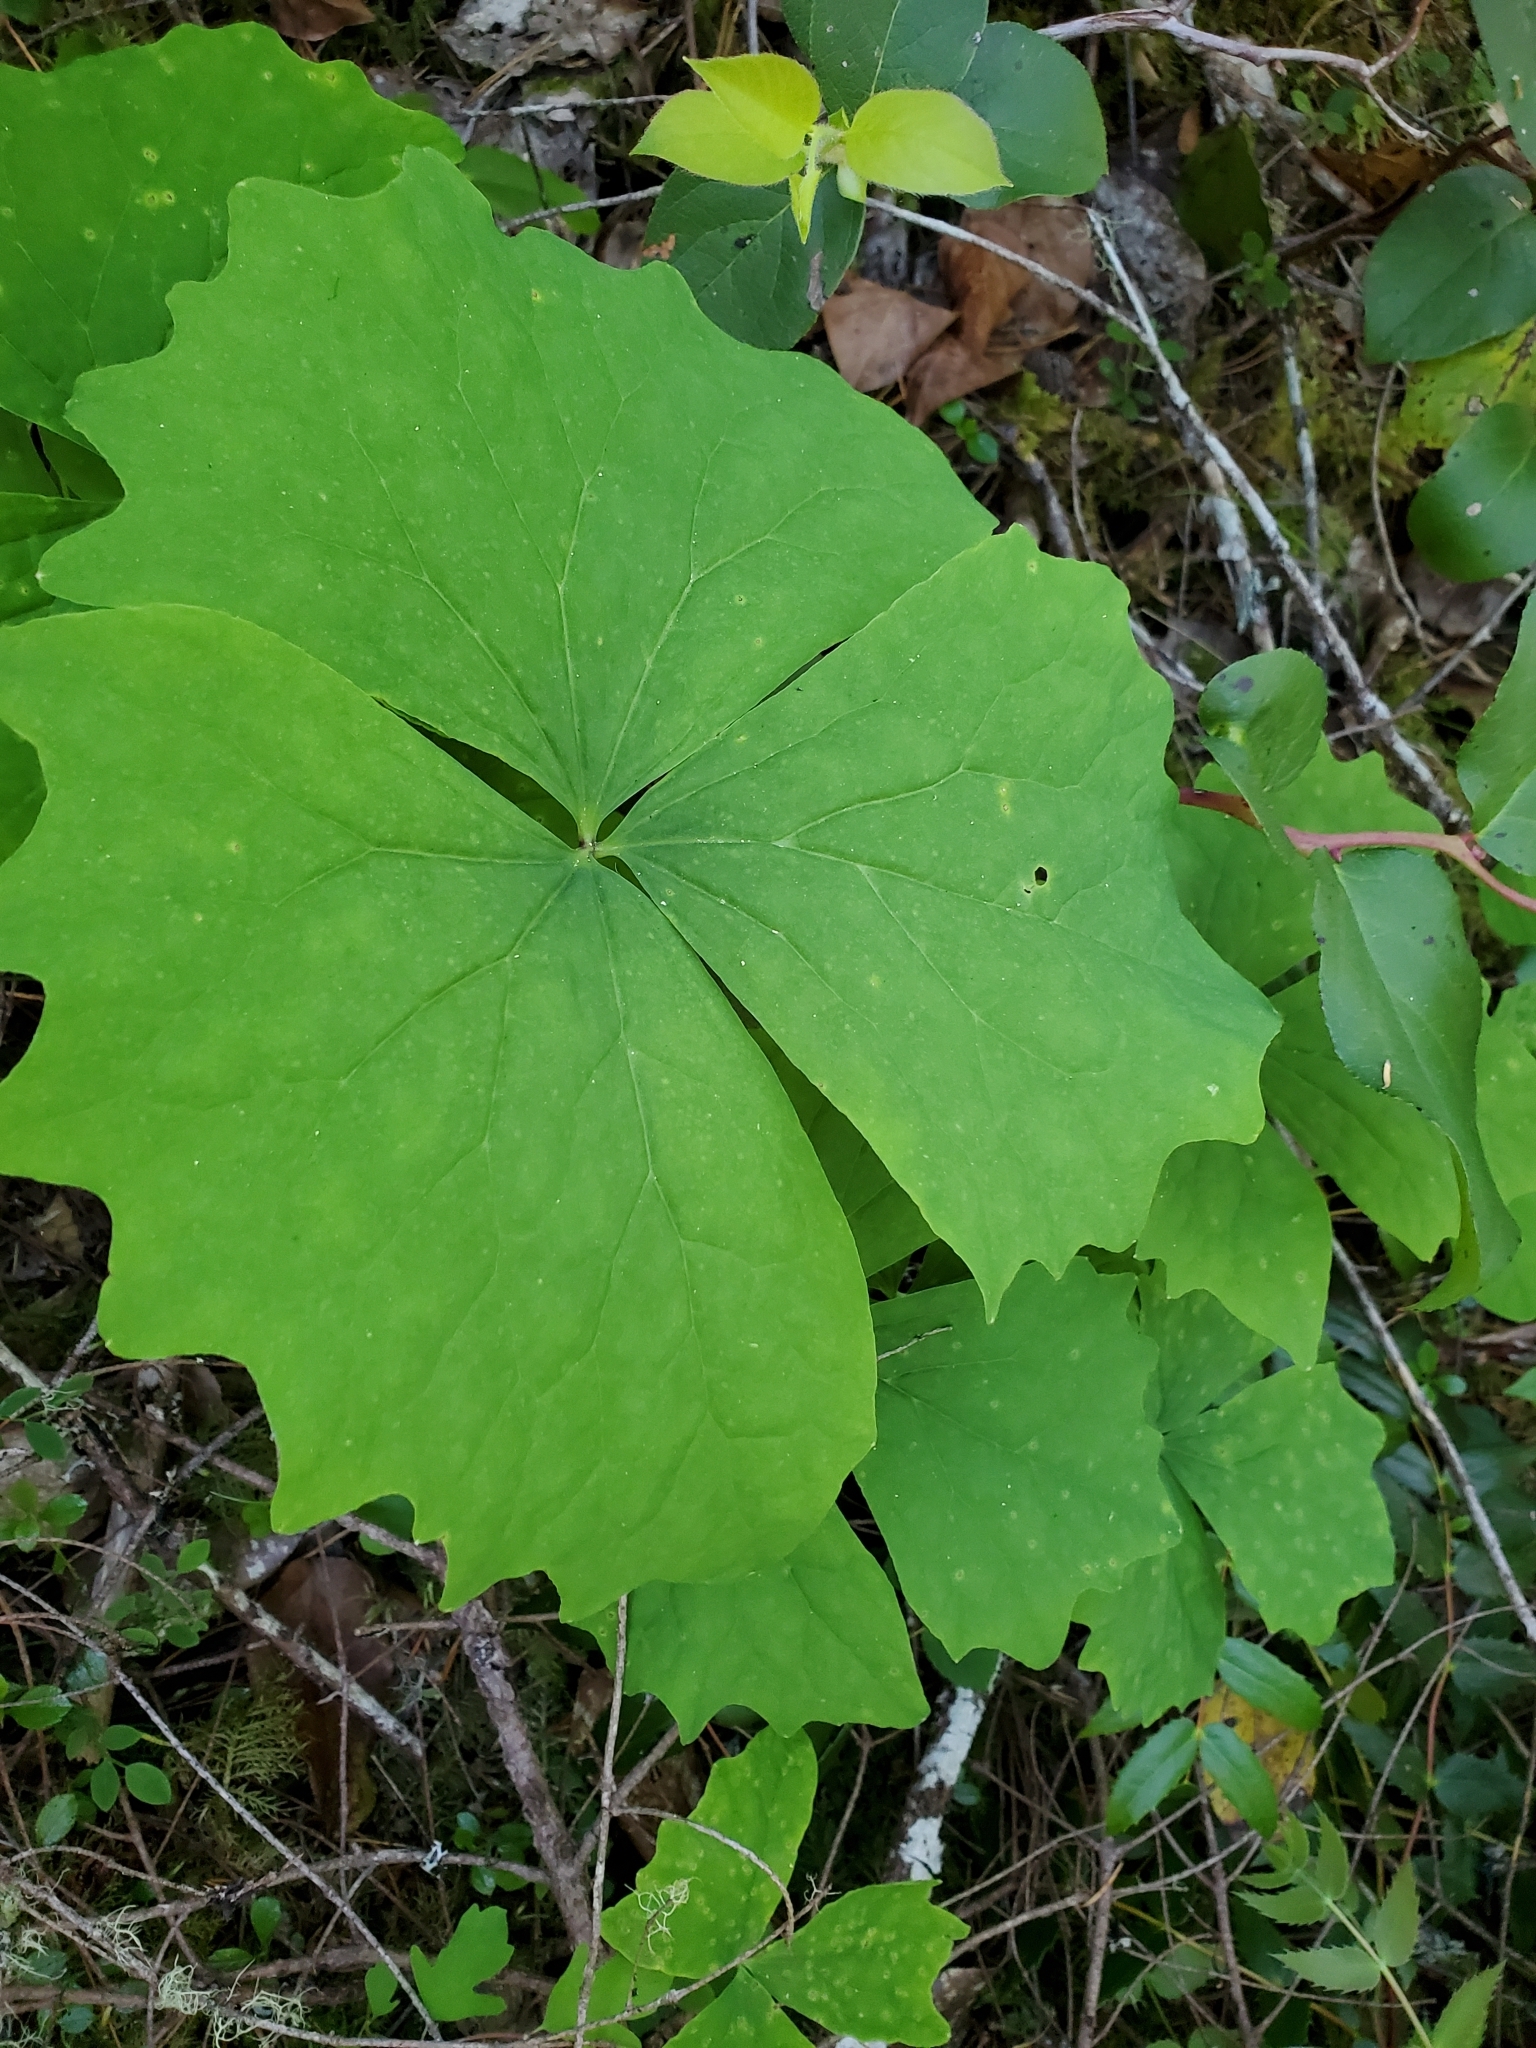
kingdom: Plantae
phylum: Tracheophyta
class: Magnoliopsida
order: Ranunculales
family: Berberidaceae
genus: Achlys
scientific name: Achlys triphylla
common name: Vanilla-leaf
